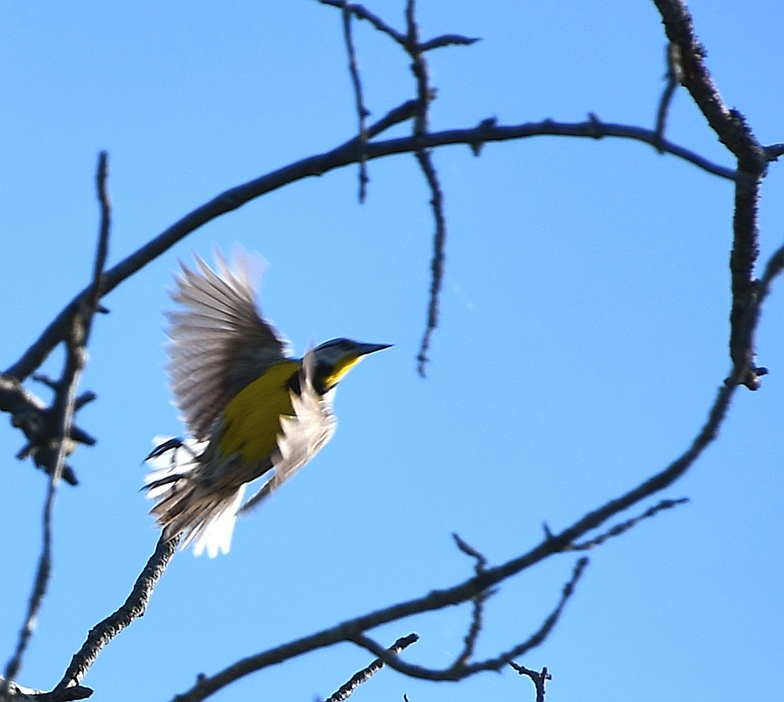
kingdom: Animalia
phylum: Chordata
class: Aves
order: Passeriformes
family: Icteridae
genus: Sturnella
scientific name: Sturnella magna
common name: Eastern meadowlark
